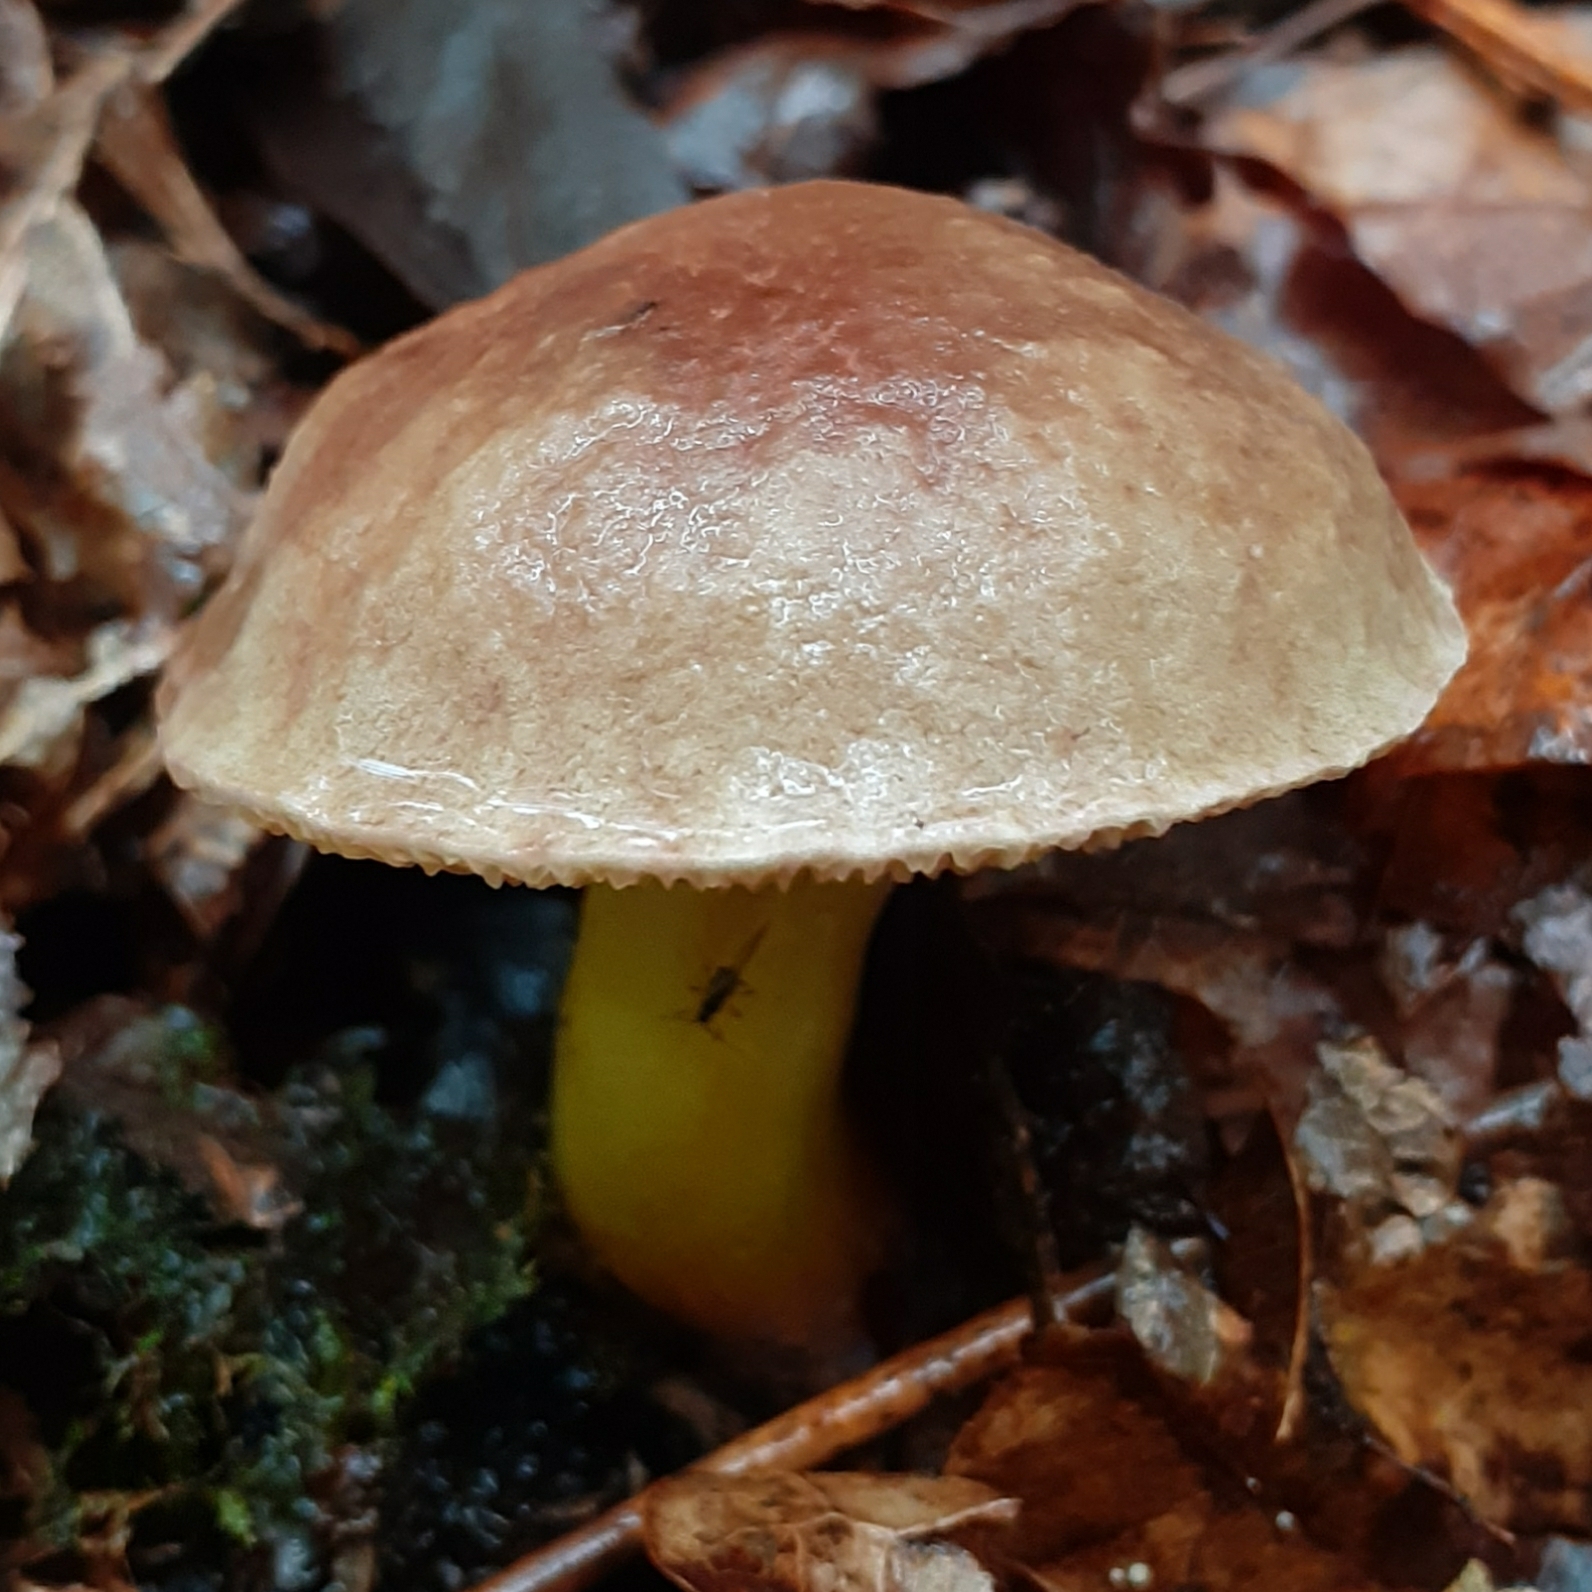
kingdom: Fungi
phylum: Basidiomycota
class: Agaricomycetes
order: Boletales
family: Boletaceae
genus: Xerocomellus
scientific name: Xerocomellus pruinatus
